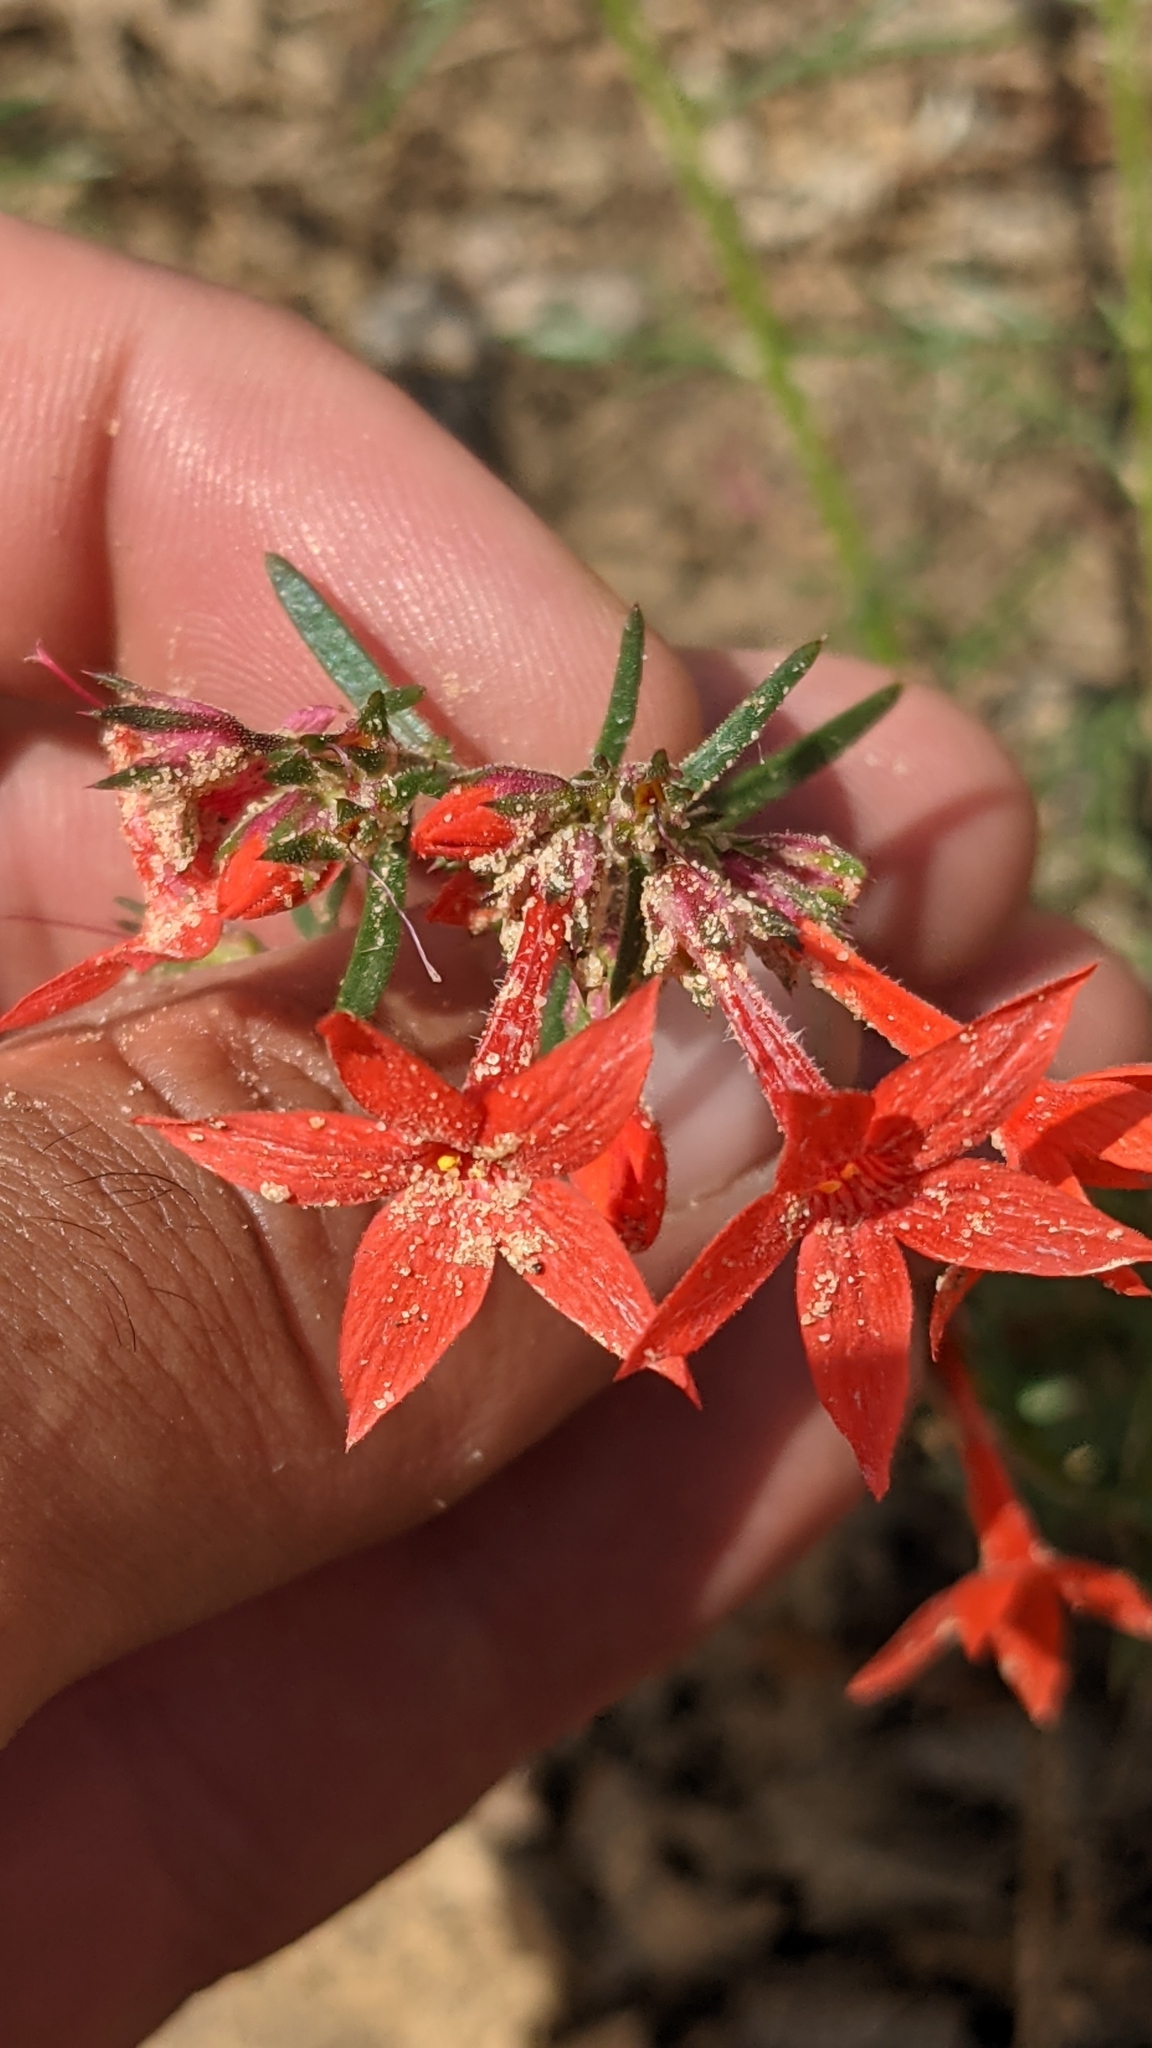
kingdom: Plantae
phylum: Tracheophyta
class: Magnoliopsida
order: Ericales
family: Polemoniaceae
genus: Ipomopsis
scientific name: Ipomopsis arizonica
